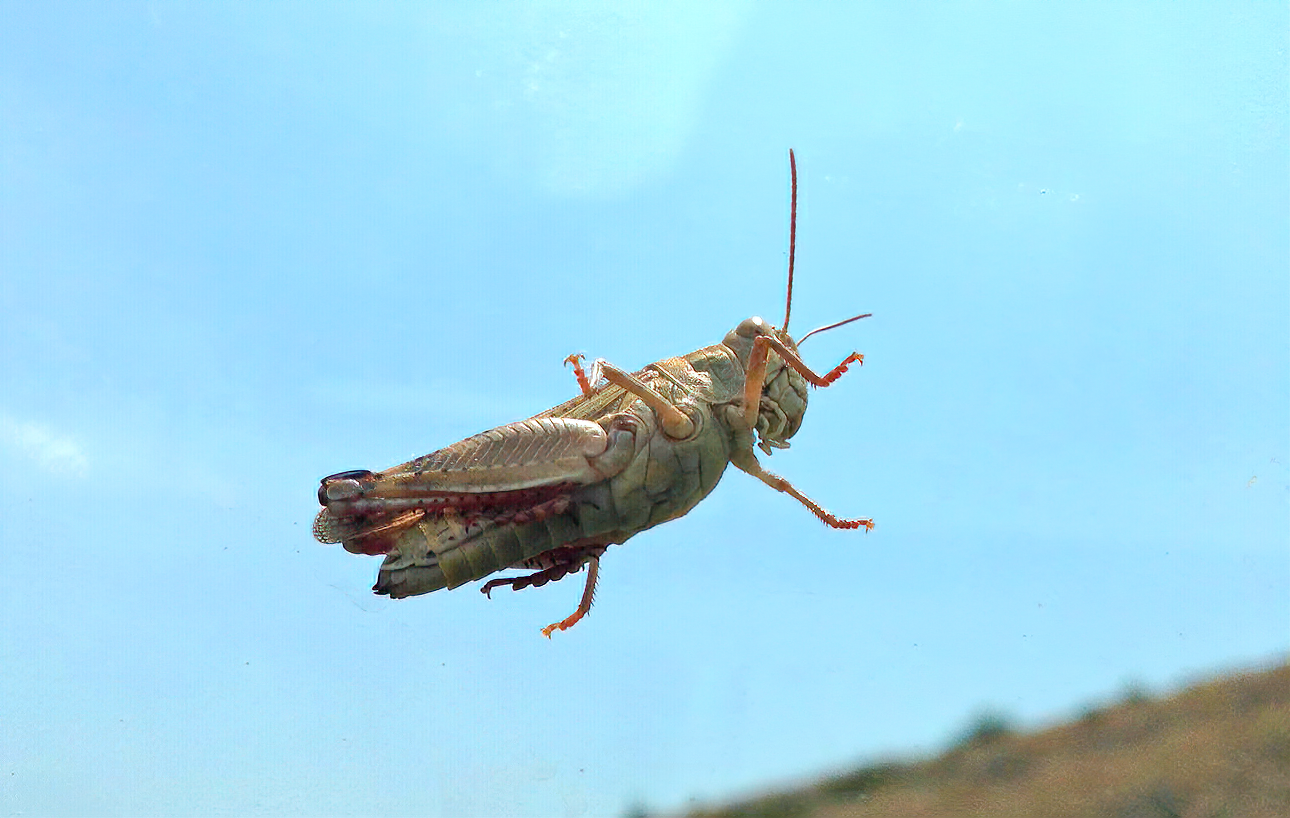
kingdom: Animalia
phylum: Arthropoda
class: Insecta
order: Orthoptera
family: Acrididae
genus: Calliptamus
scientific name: Calliptamus italicus
